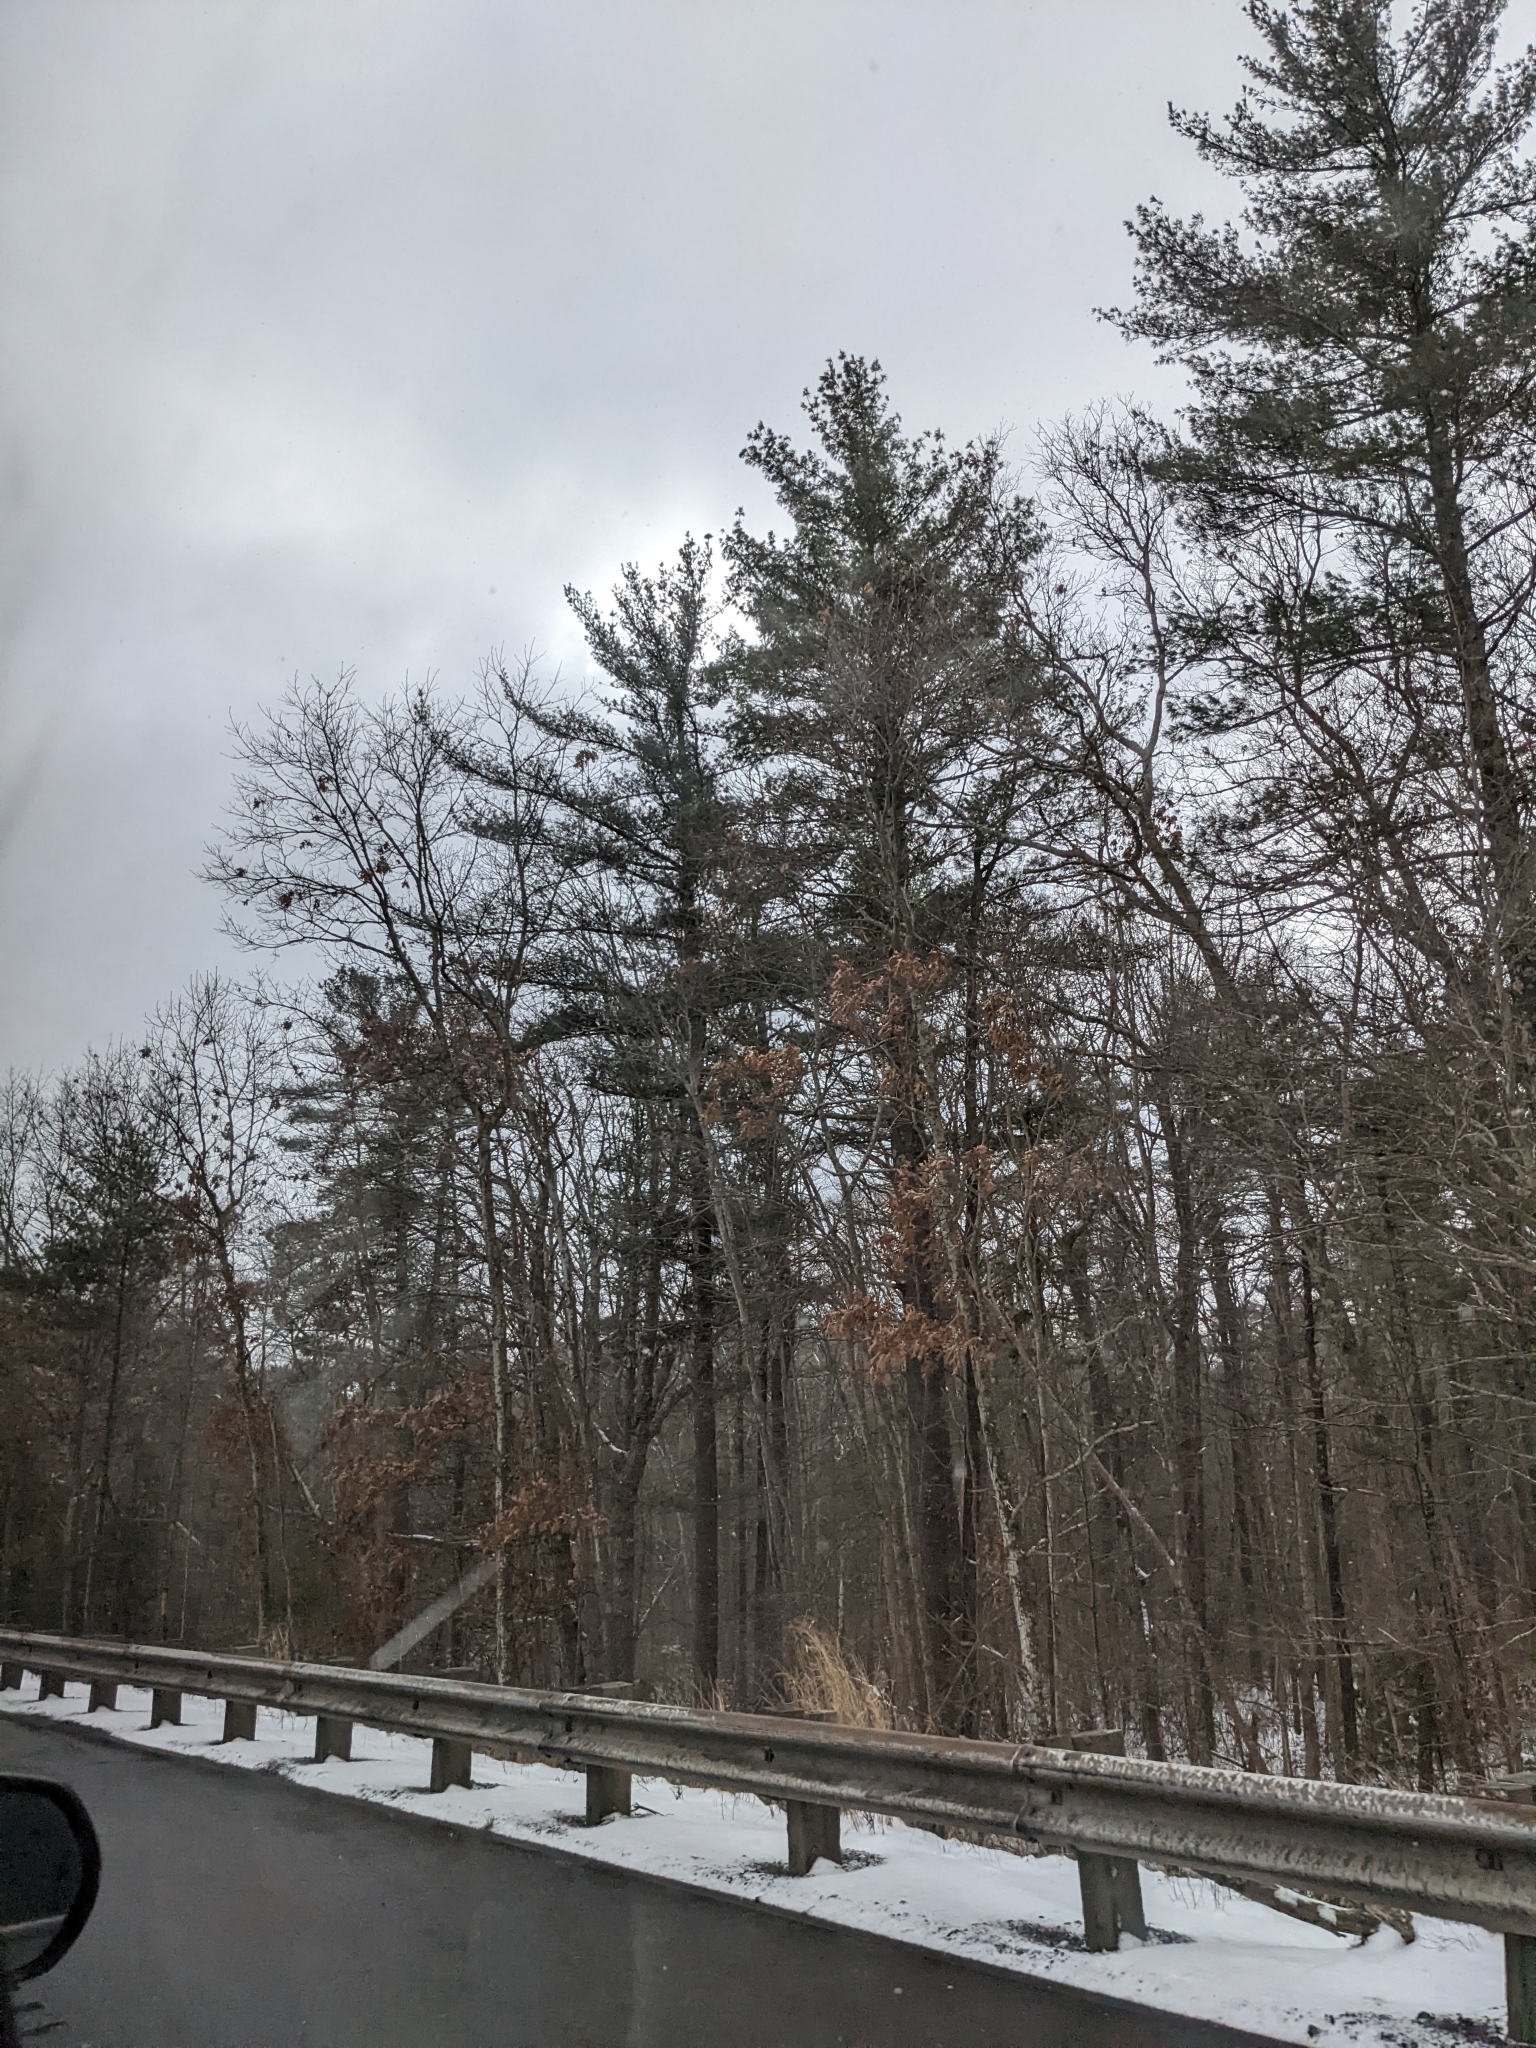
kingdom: Plantae
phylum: Tracheophyta
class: Pinopsida
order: Pinales
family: Pinaceae
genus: Pinus
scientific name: Pinus strobus
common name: Weymouth pine
